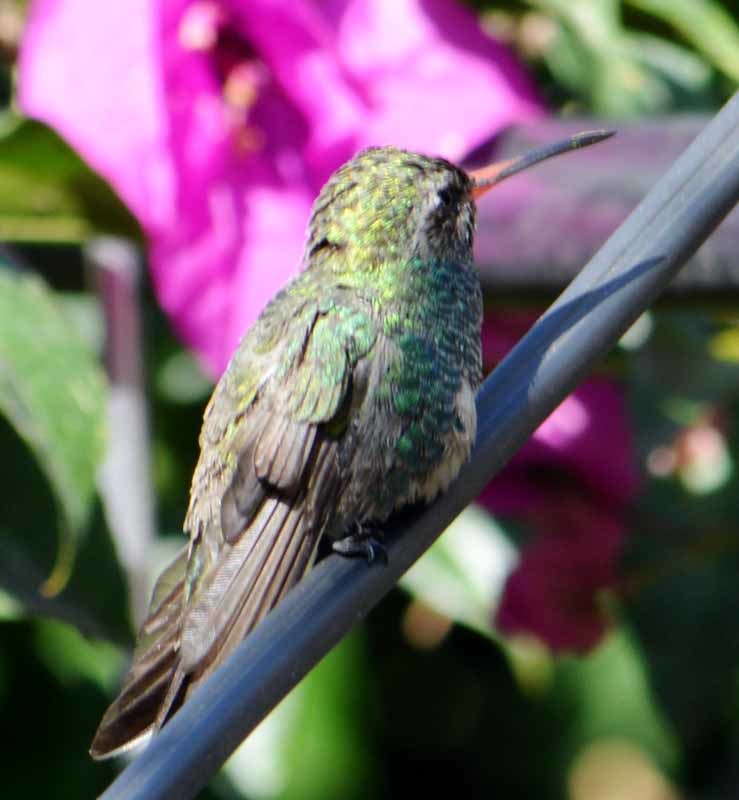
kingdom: Animalia
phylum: Chordata
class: Aves
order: Apodiformes
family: Trochilidae
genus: Cynanthus
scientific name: Cynanthus latirostris
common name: Broad-billed hummingbird
